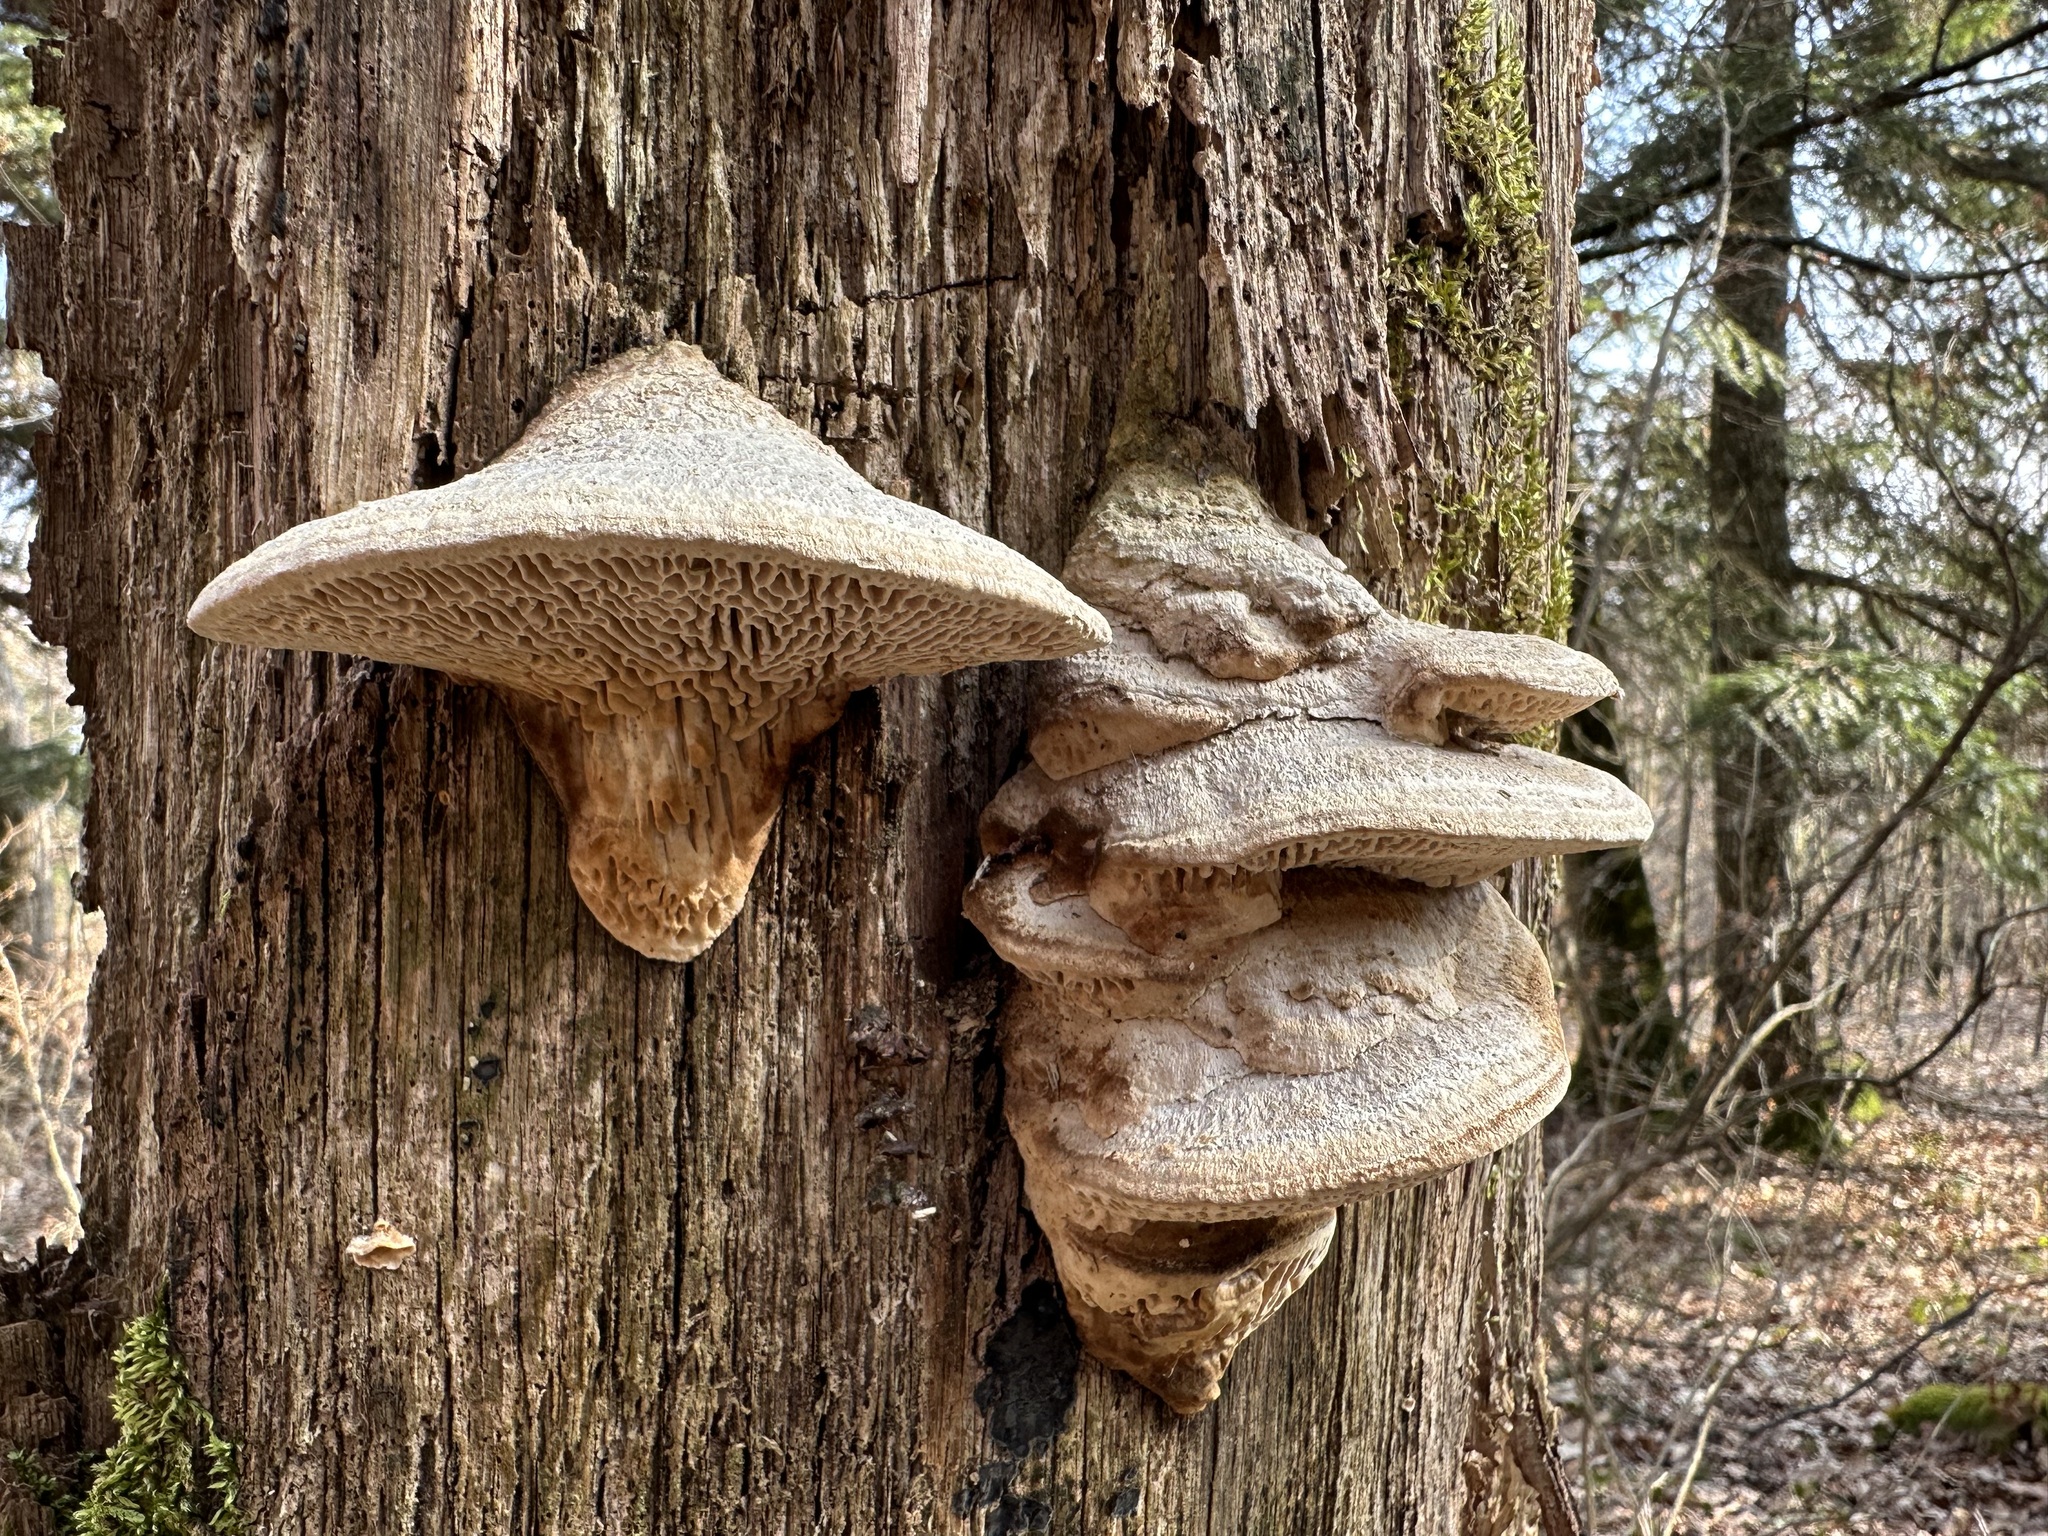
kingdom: Fungi
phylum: Basidiomycota
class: Agaricomycetes
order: Polyporales
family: Fomitopsidaceae
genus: Fomitopsis
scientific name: Fomitopsis
